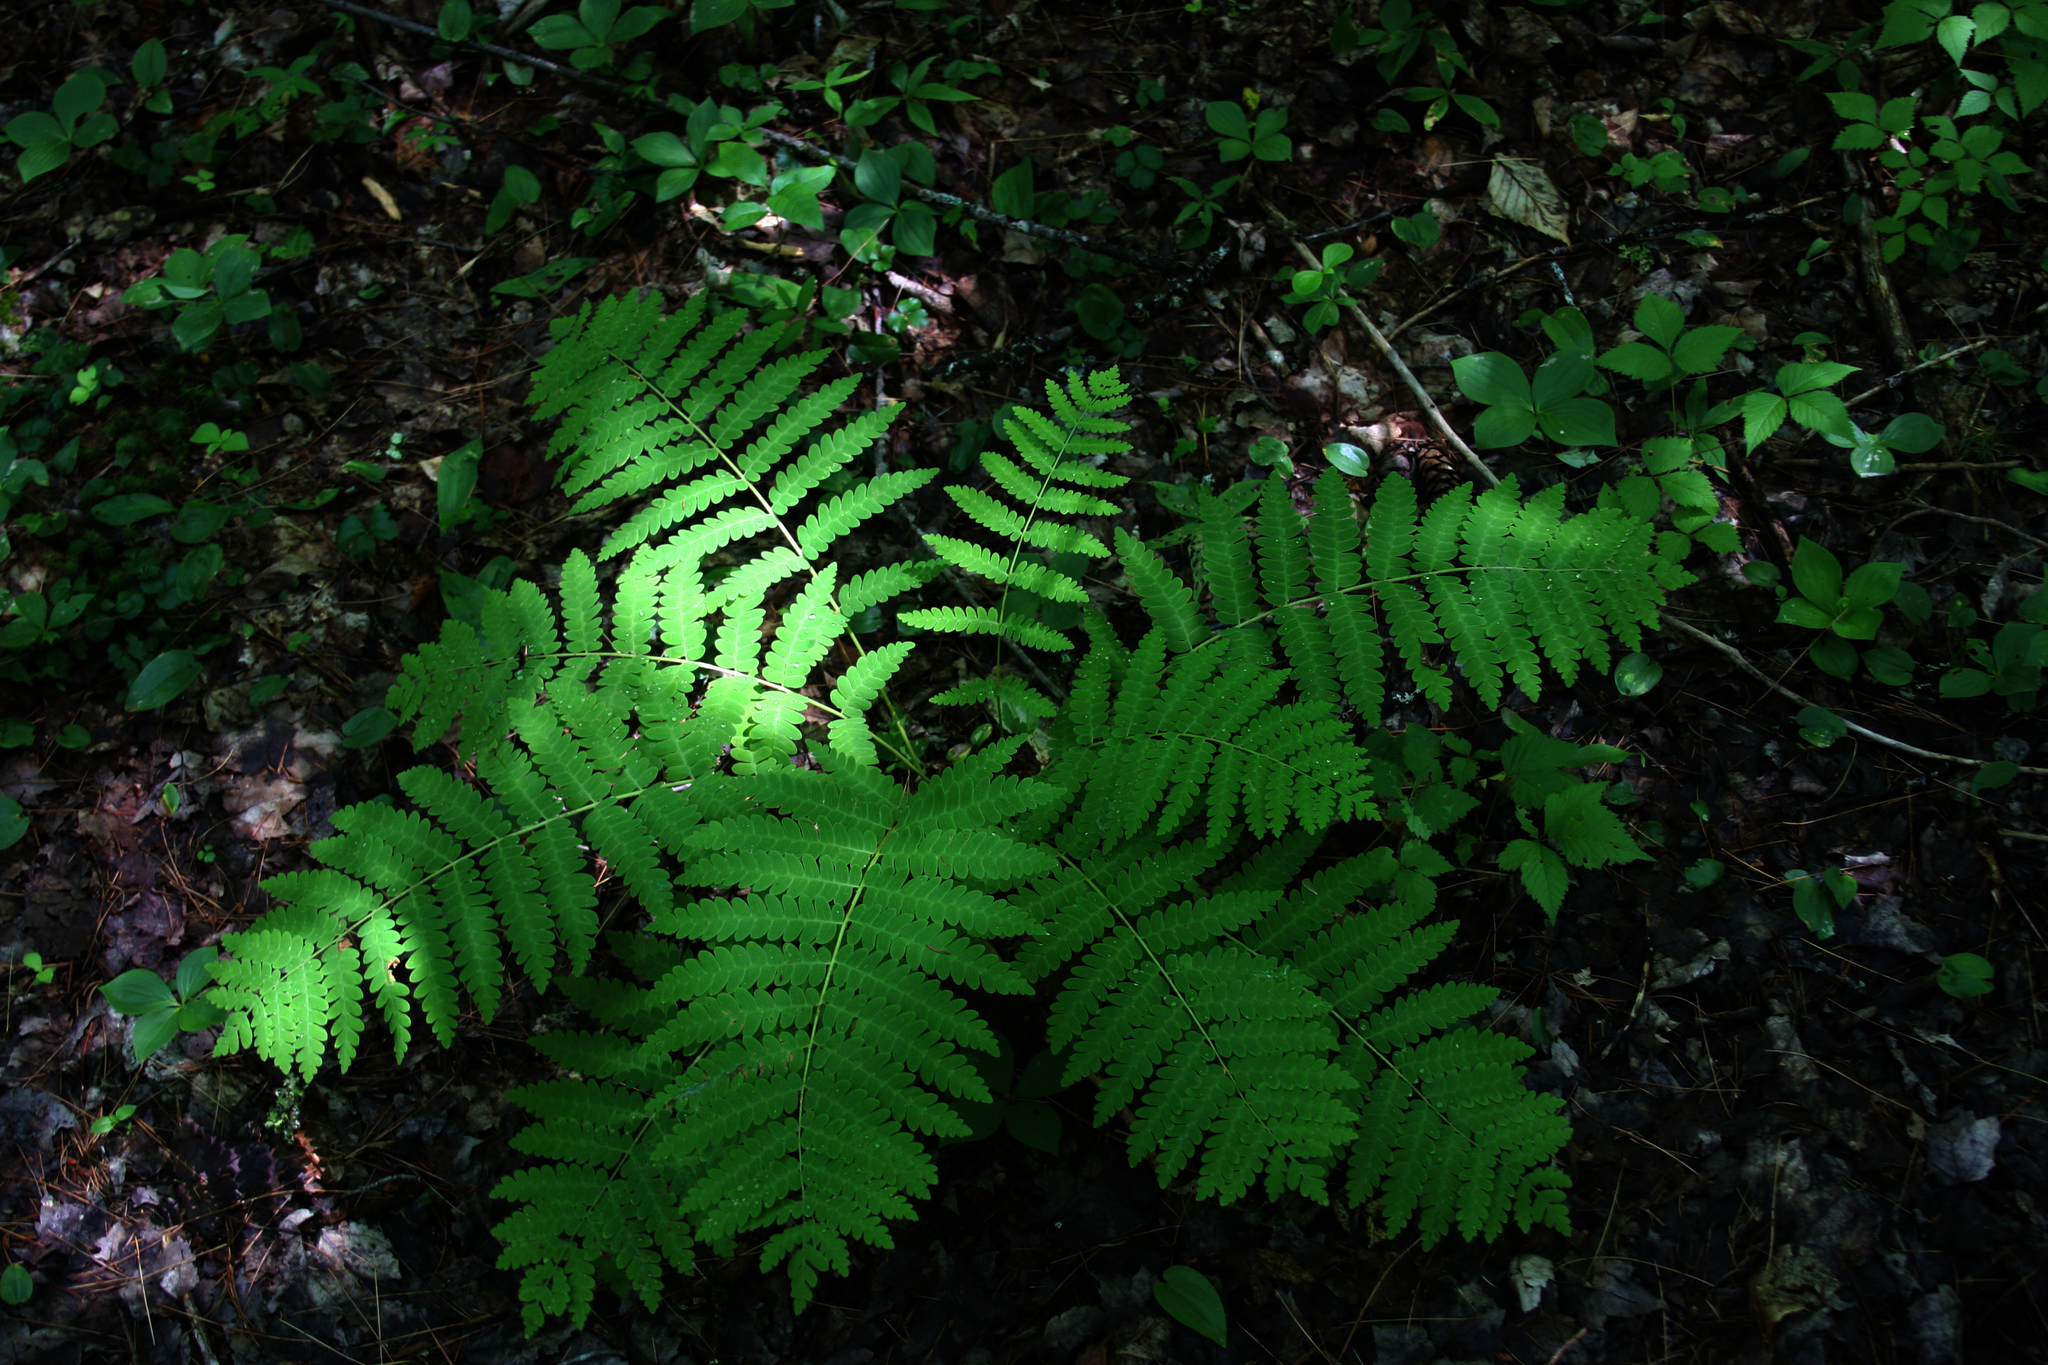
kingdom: Plantae
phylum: Tracheophyta
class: Polypodiopsida
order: Osmundales
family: Osmundaceae
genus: Claytosmunda
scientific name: Claytosmunda claytoniana
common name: Clayton's fern
